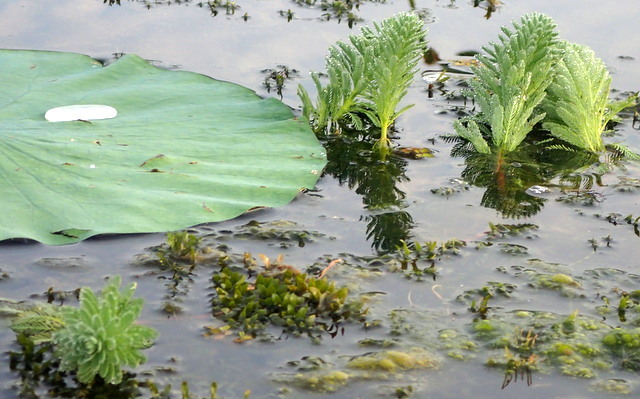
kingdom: Plantae
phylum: Tracheophyta
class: Magnoliopsida
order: Saxifragales
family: Haloragaceae
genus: Myriophyllum
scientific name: Myriophyllum aquaticum
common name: Parrot's feather
